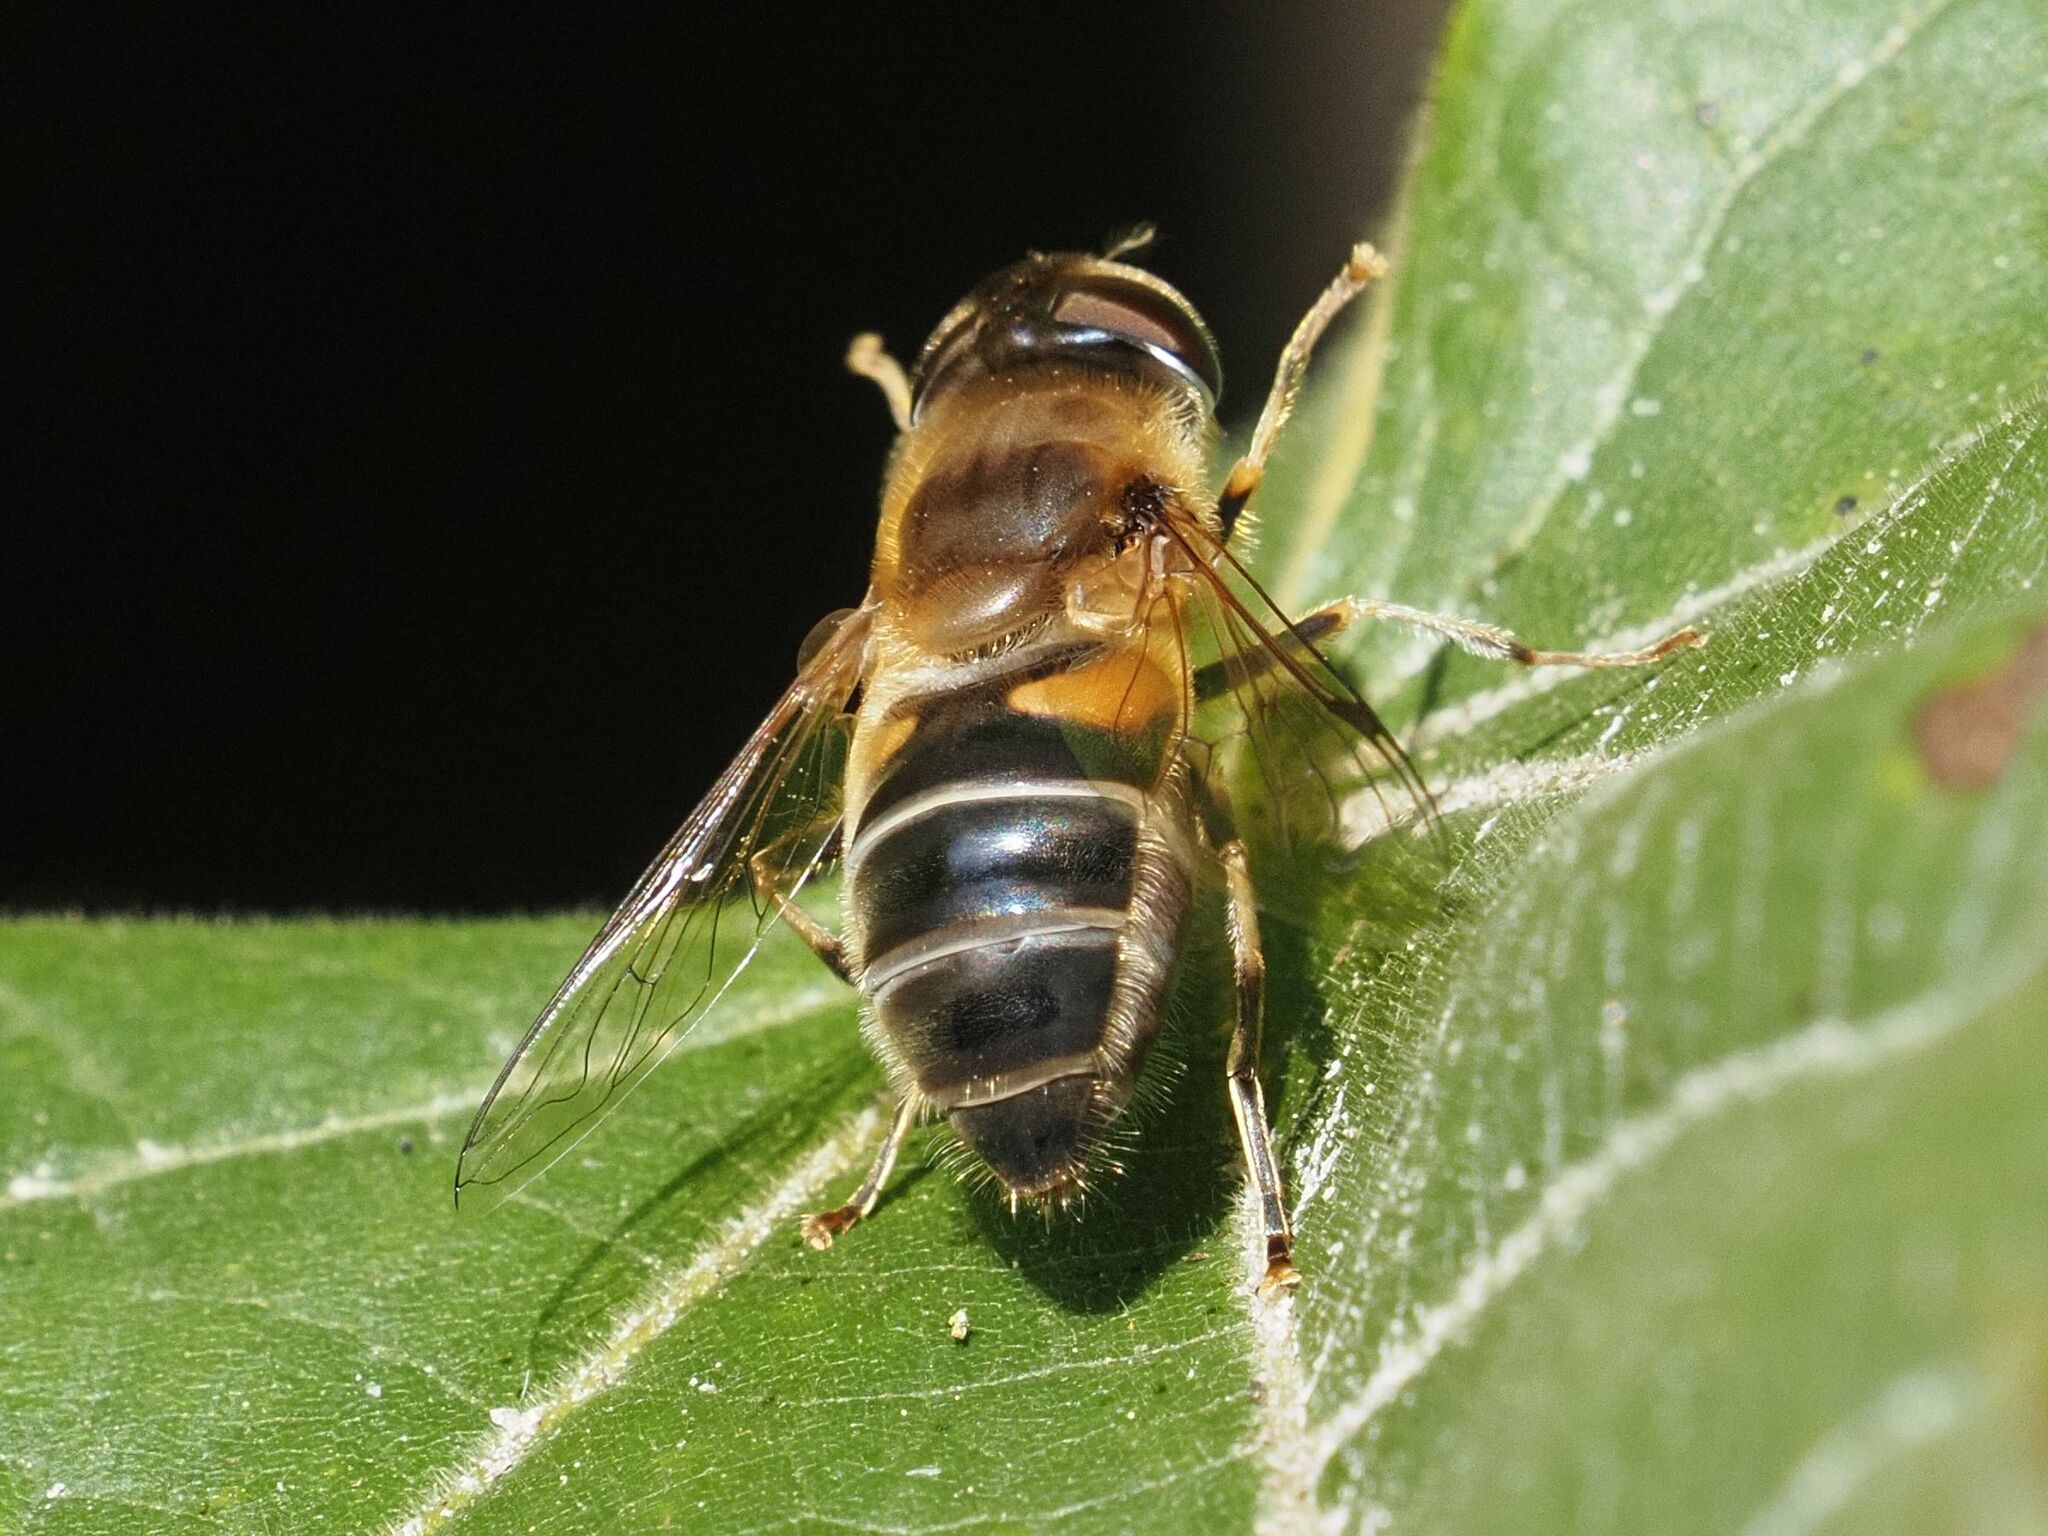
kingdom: Animalia
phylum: Arthropoda
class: Insecta
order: Diptera
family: Syrphidae
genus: Eristalis
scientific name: Eristalis pertinax
